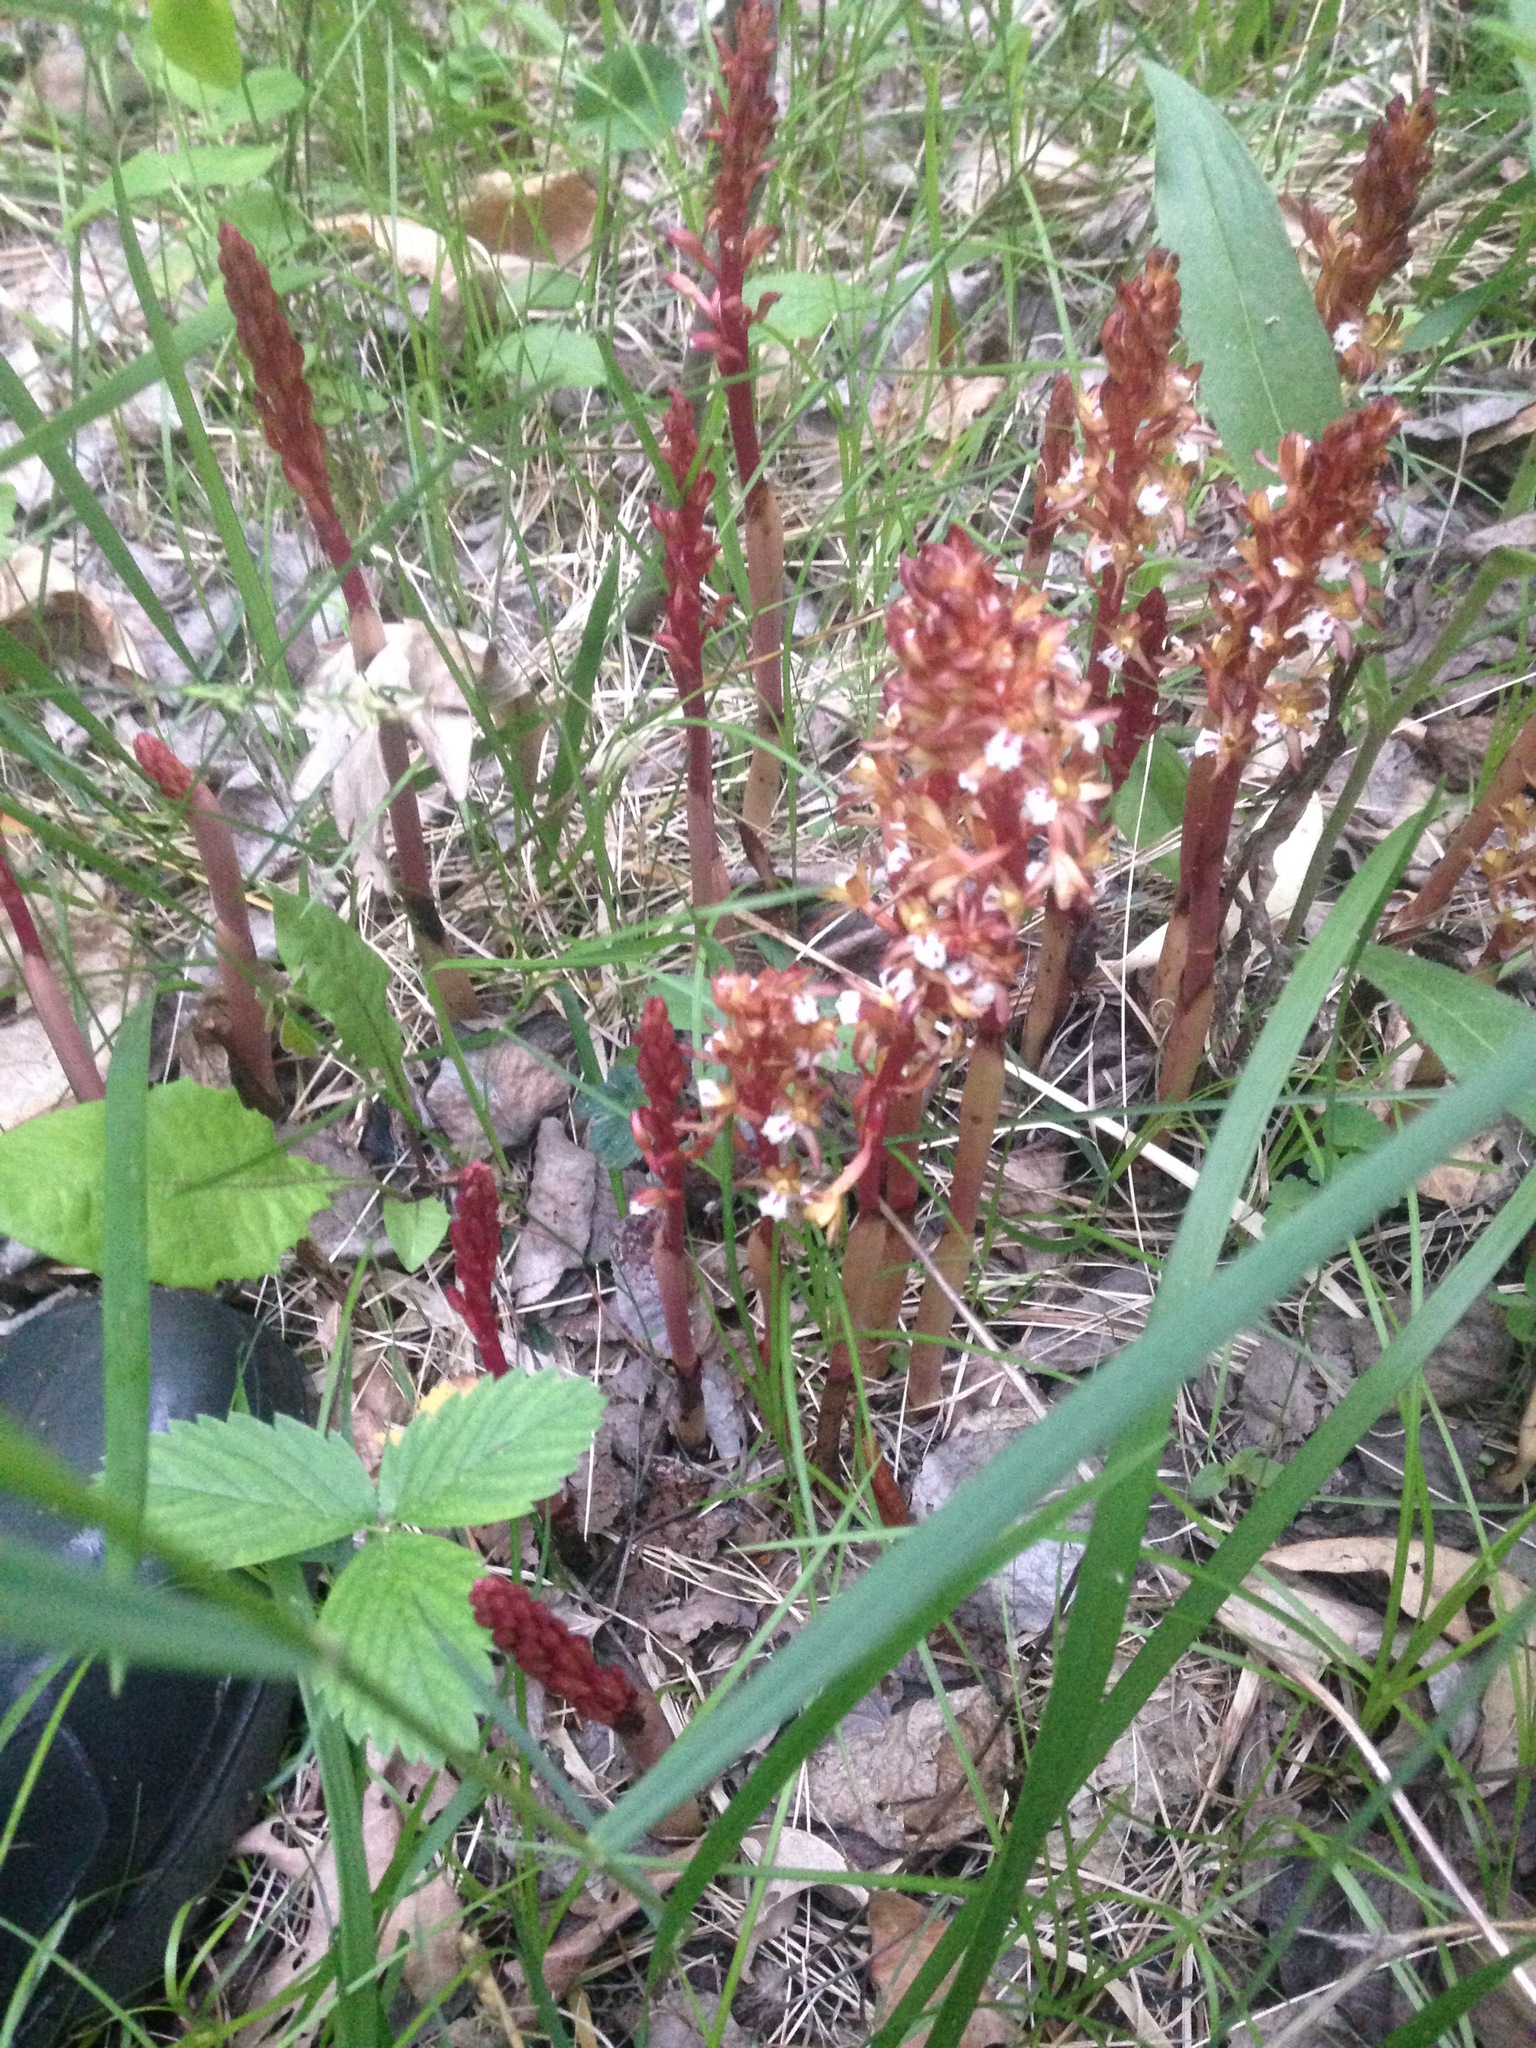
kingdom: Plantae
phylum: Tracheophyta
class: Liliopsida
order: Asparagales
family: Orchidaceae
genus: Corallorhiza
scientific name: Corallorhiza maculata
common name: Spotted coralroot
